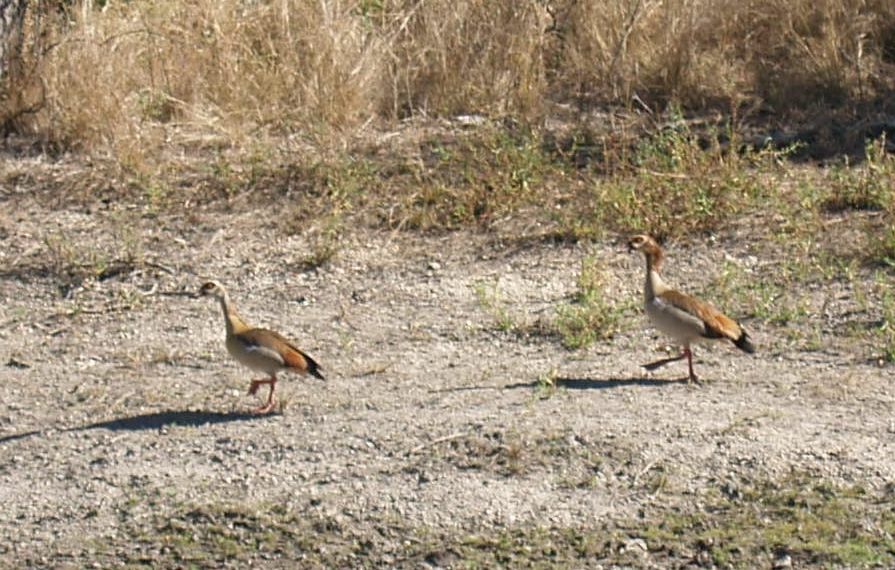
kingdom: Animalia
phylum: Chordata
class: Aves
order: Anseriformes
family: Anatidae
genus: Alopochen
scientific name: Alopochen aegyptiaca
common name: Egyptian goose
